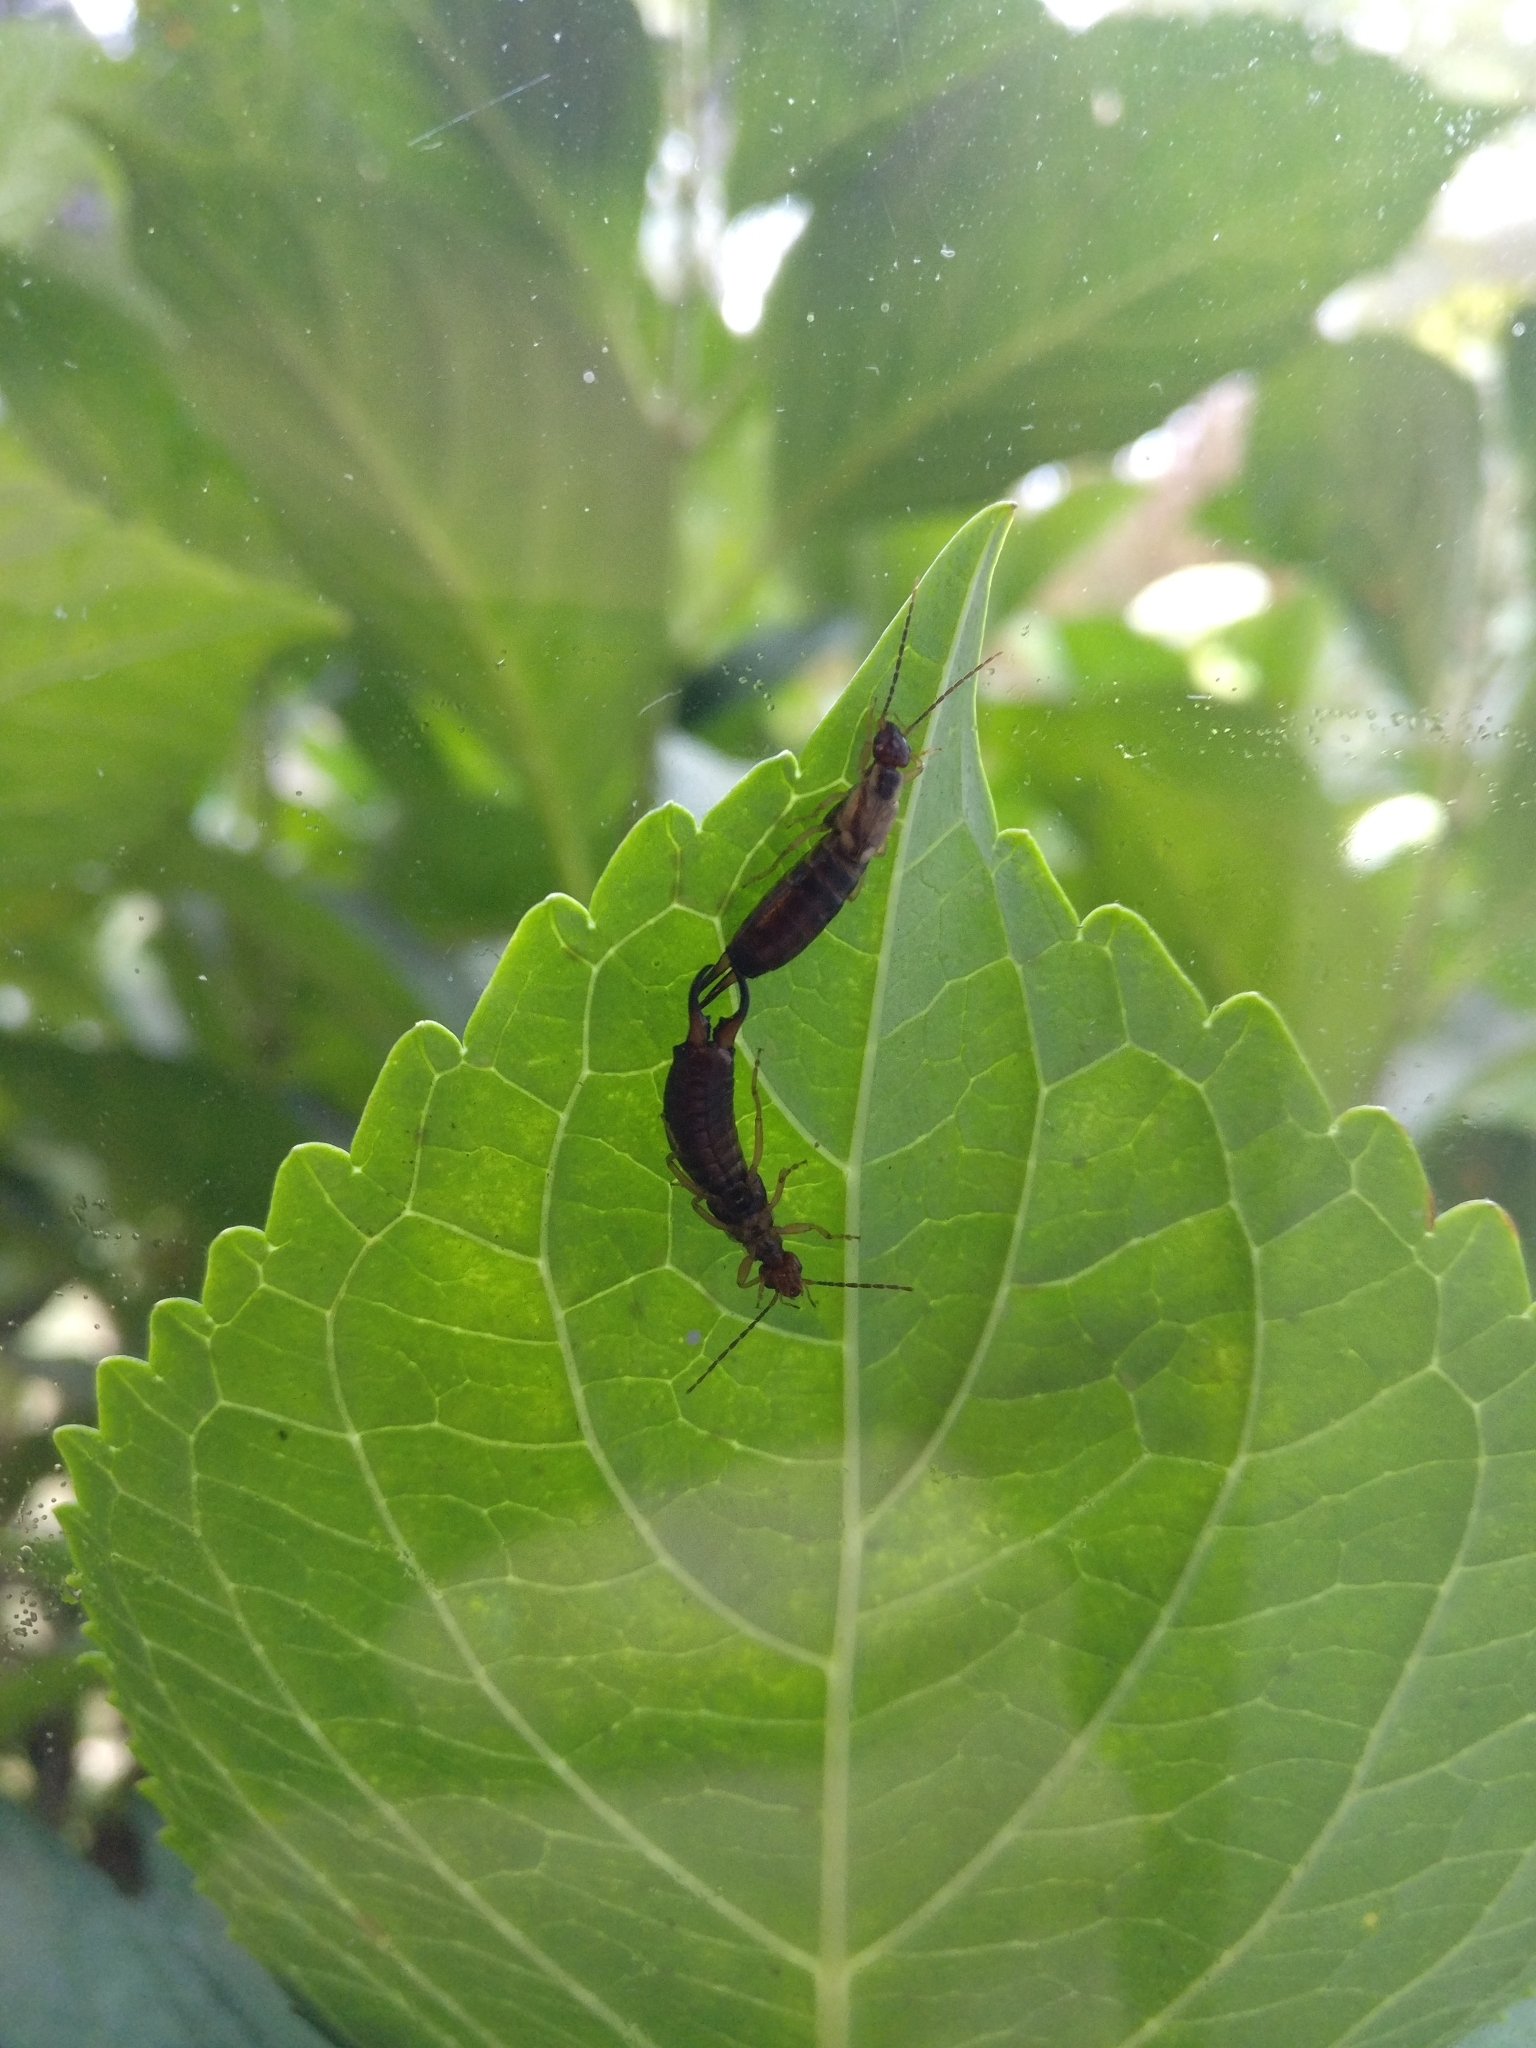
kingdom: Animalia
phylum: Arthropoda
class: Insecta
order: Dermaptera
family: Forficulidae
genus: Forficula
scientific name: Forficula
